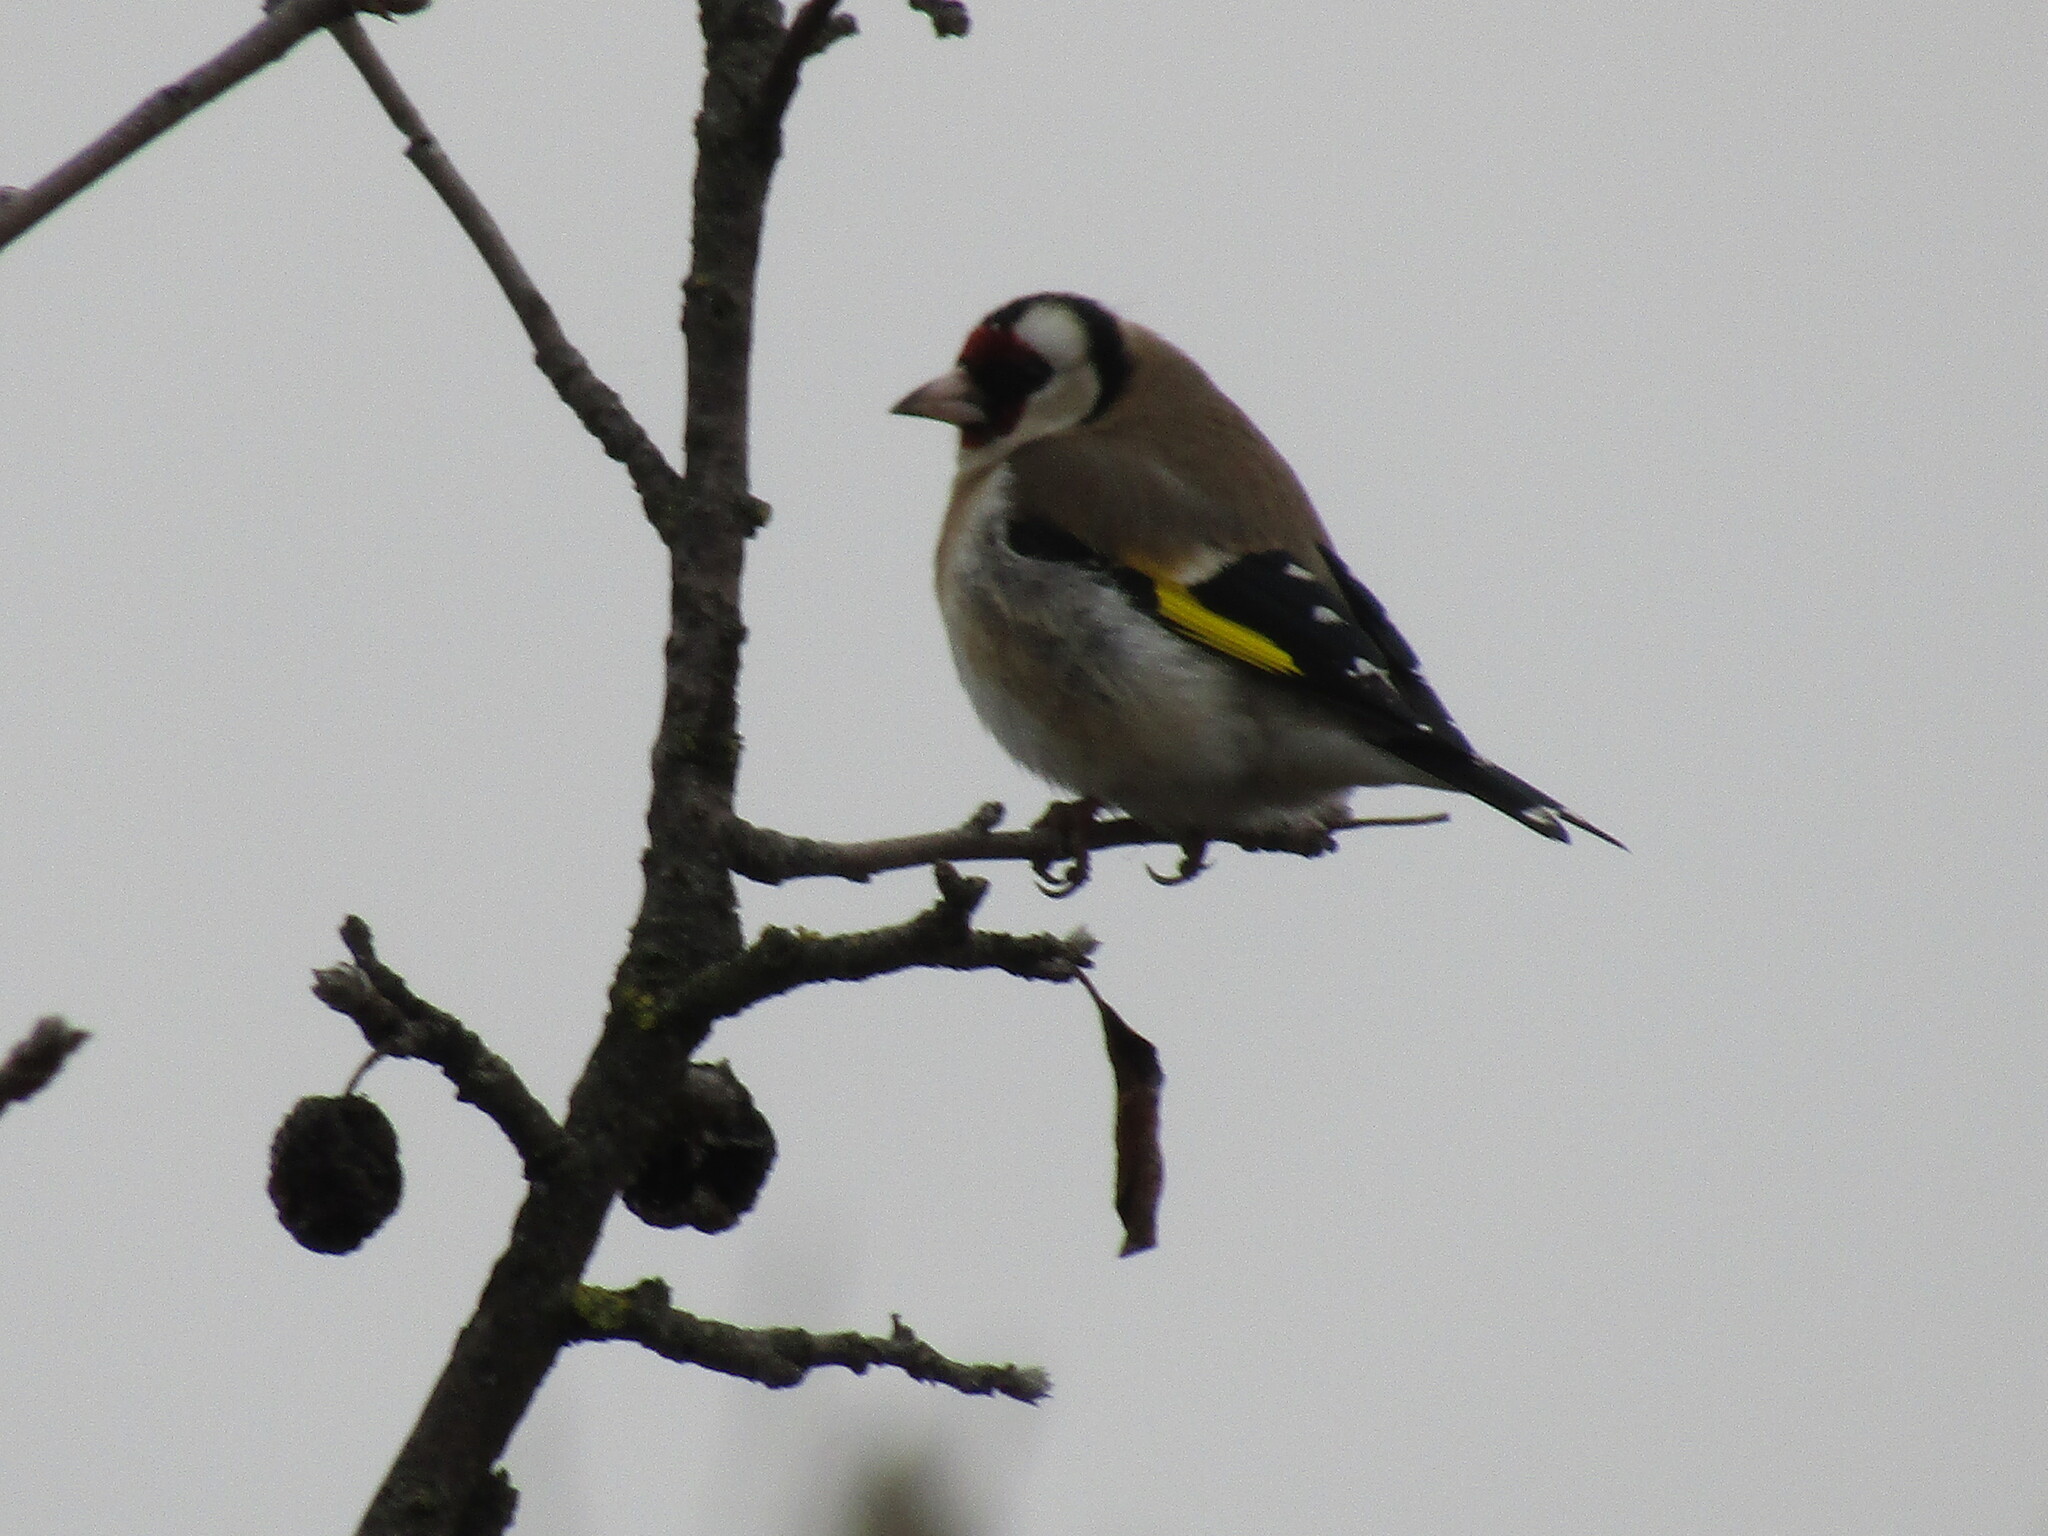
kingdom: Animalia
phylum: Chordata
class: Aves
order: Passeriformes
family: Fringillidae
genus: Carduelis
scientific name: Carduelis carduelis
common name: European goldfinch
